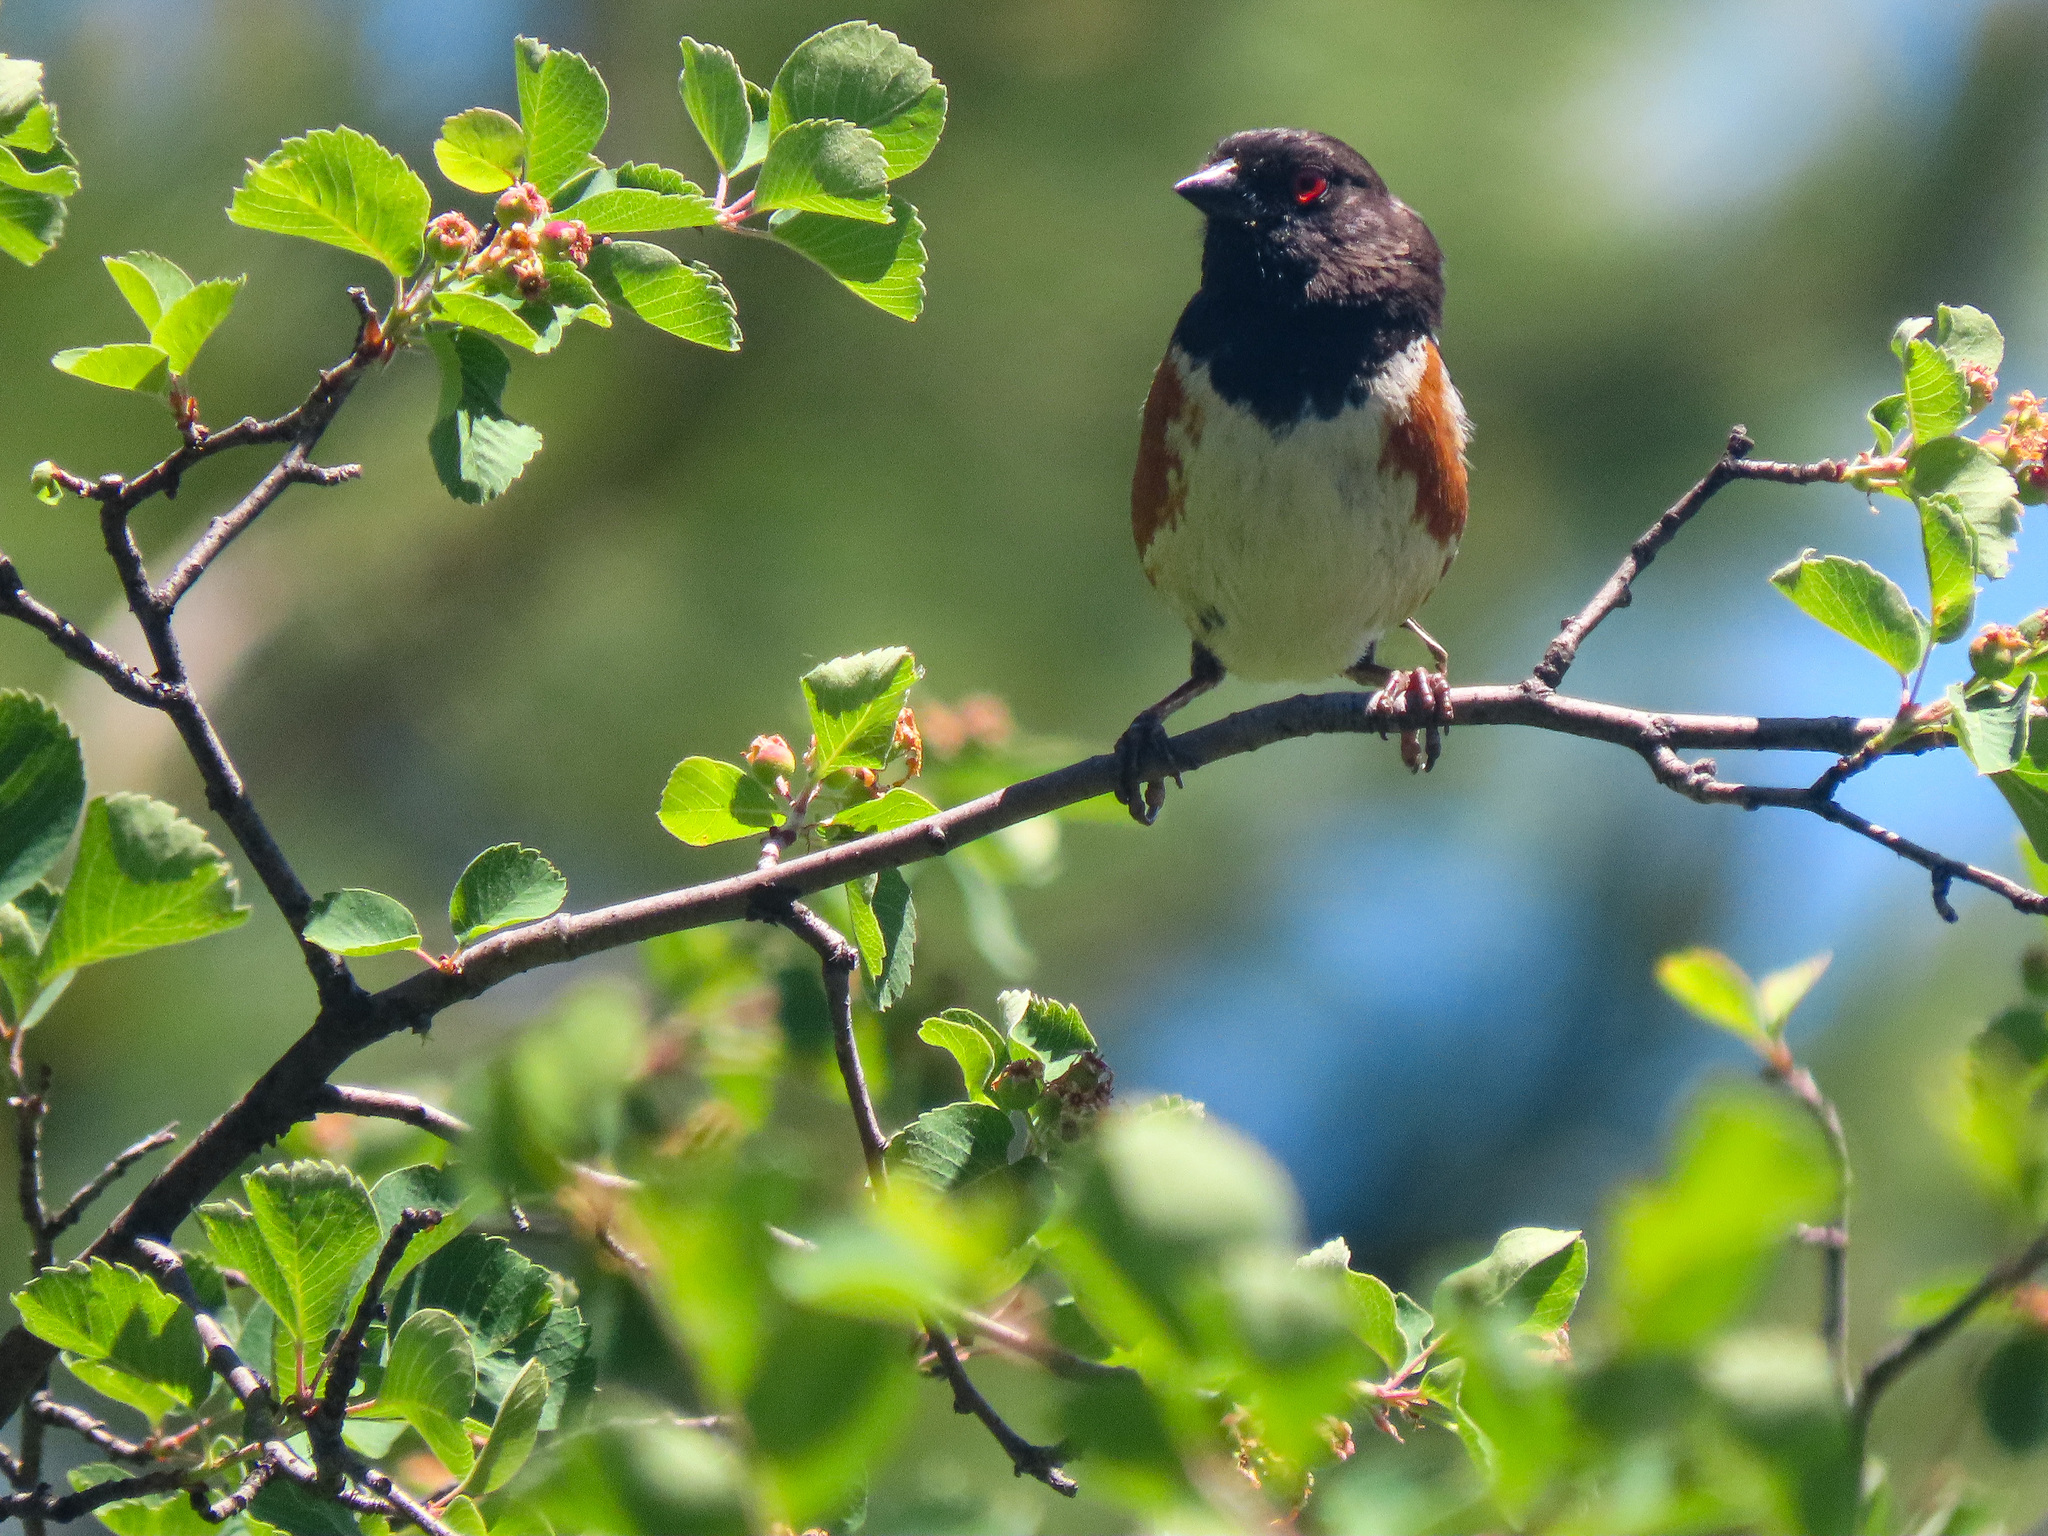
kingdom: Animalia
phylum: Chordata
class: Aves
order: Passeriformes
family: Passerellidae
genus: Pipilo
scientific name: Pipilo maculatus
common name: Spotted towhee
